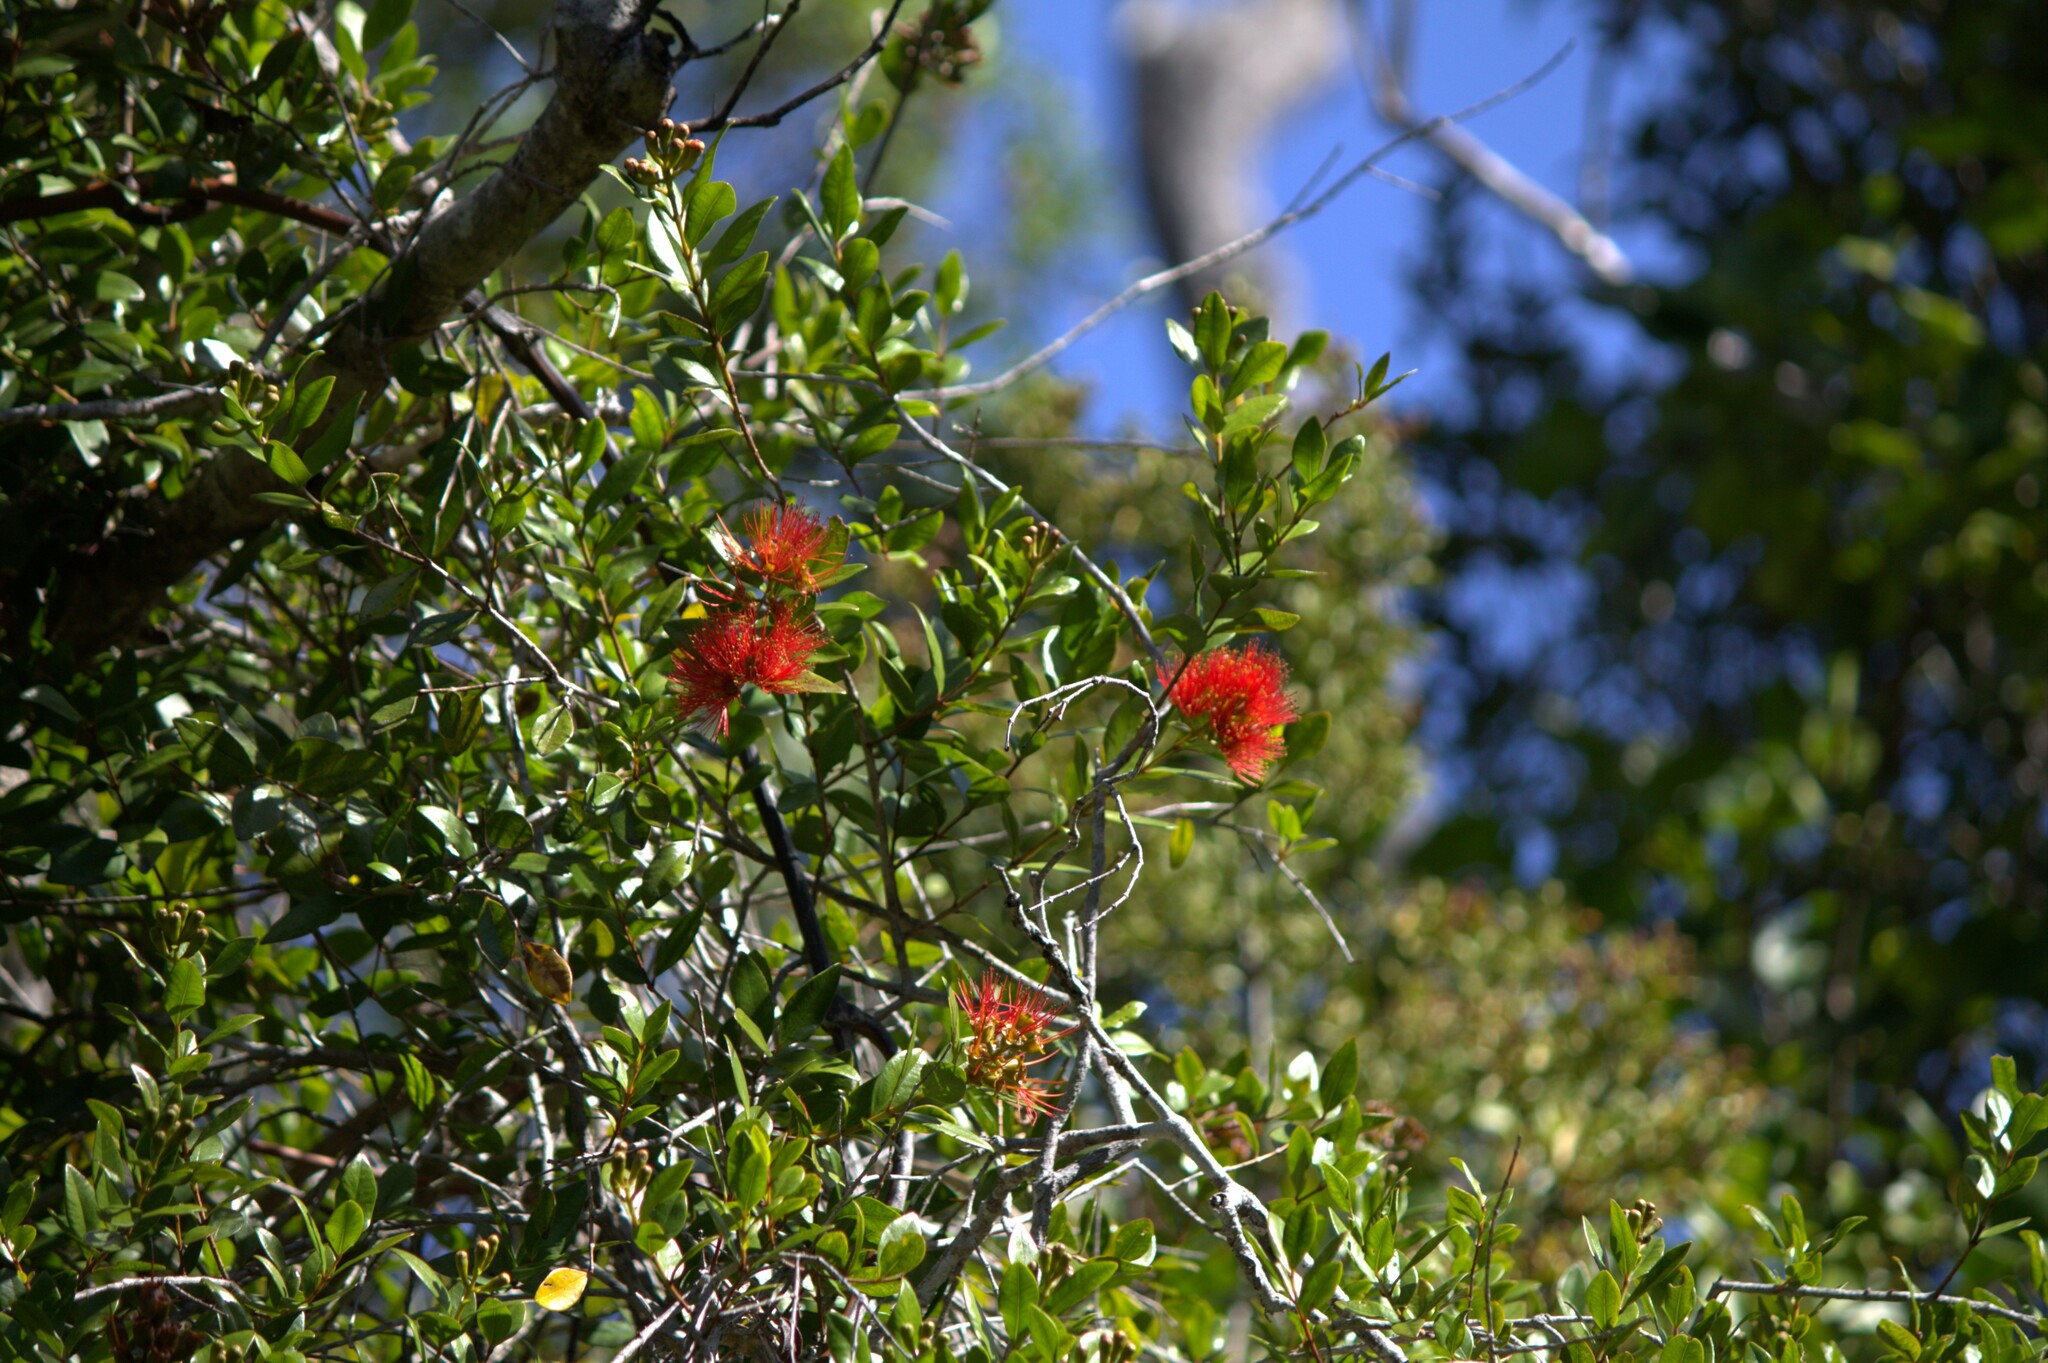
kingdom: Plantae
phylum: Tracheophyta
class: Magnoliopsida
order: Myrtales
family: Myrtaceae
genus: Metrosideros
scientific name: Metrosideros fulgens
